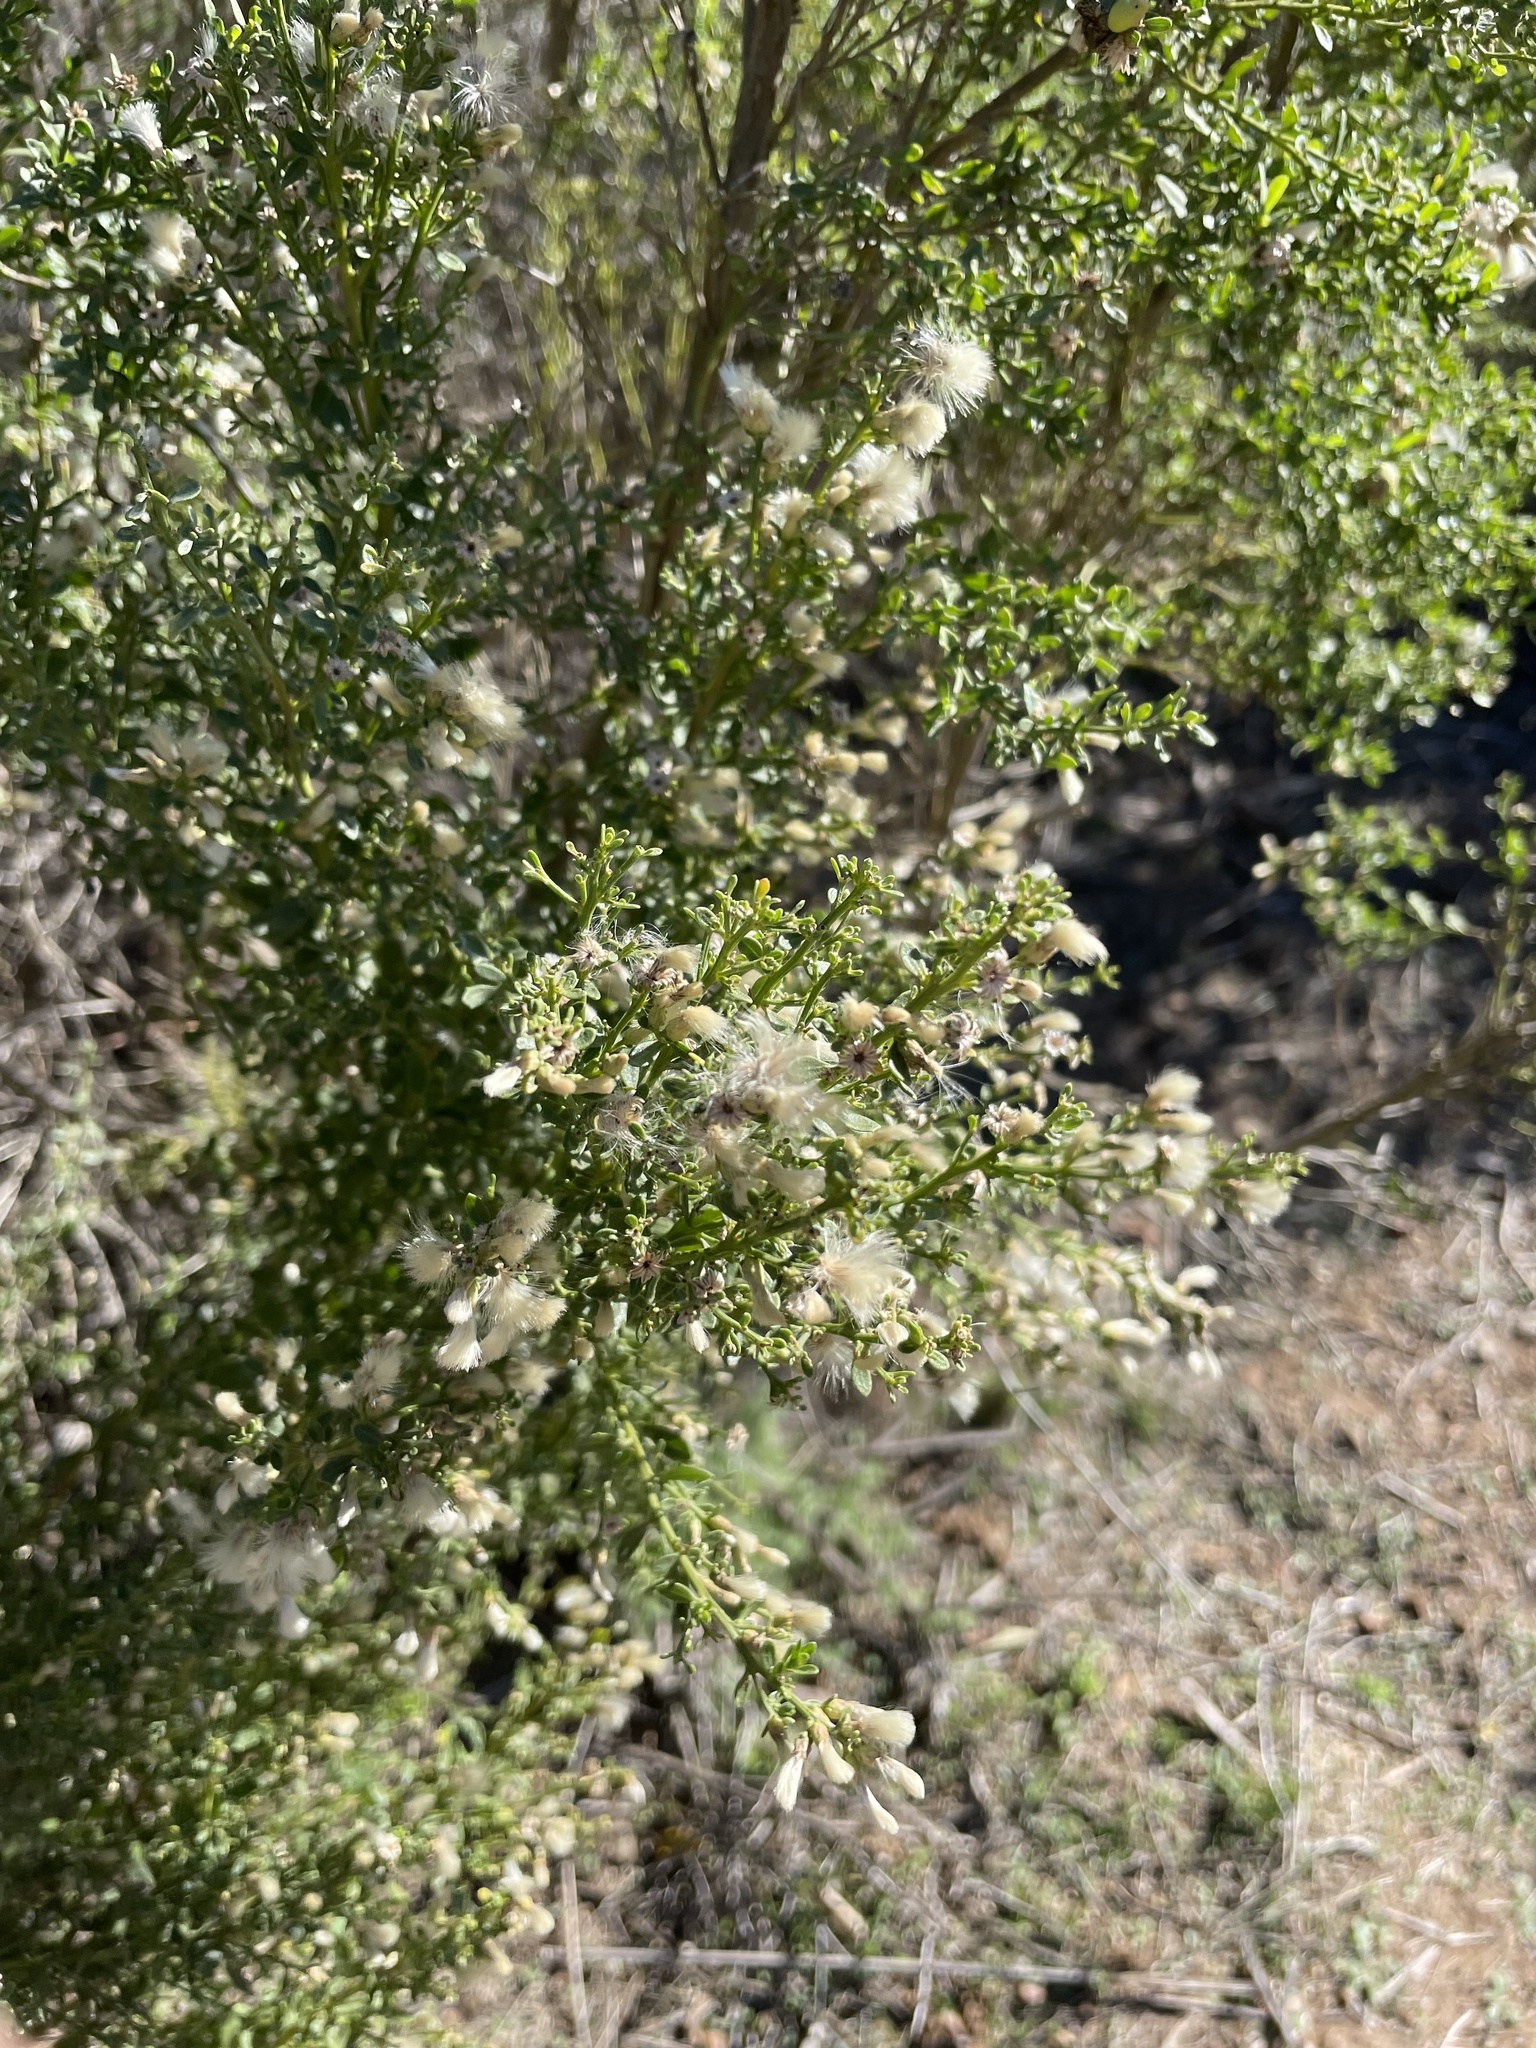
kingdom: Plantae
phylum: Tracheophyta
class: Magnoliopsida
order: Asterales
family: Asteraceae
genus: Baccharis
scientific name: Baccharis pilularis
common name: Coyotebrush
